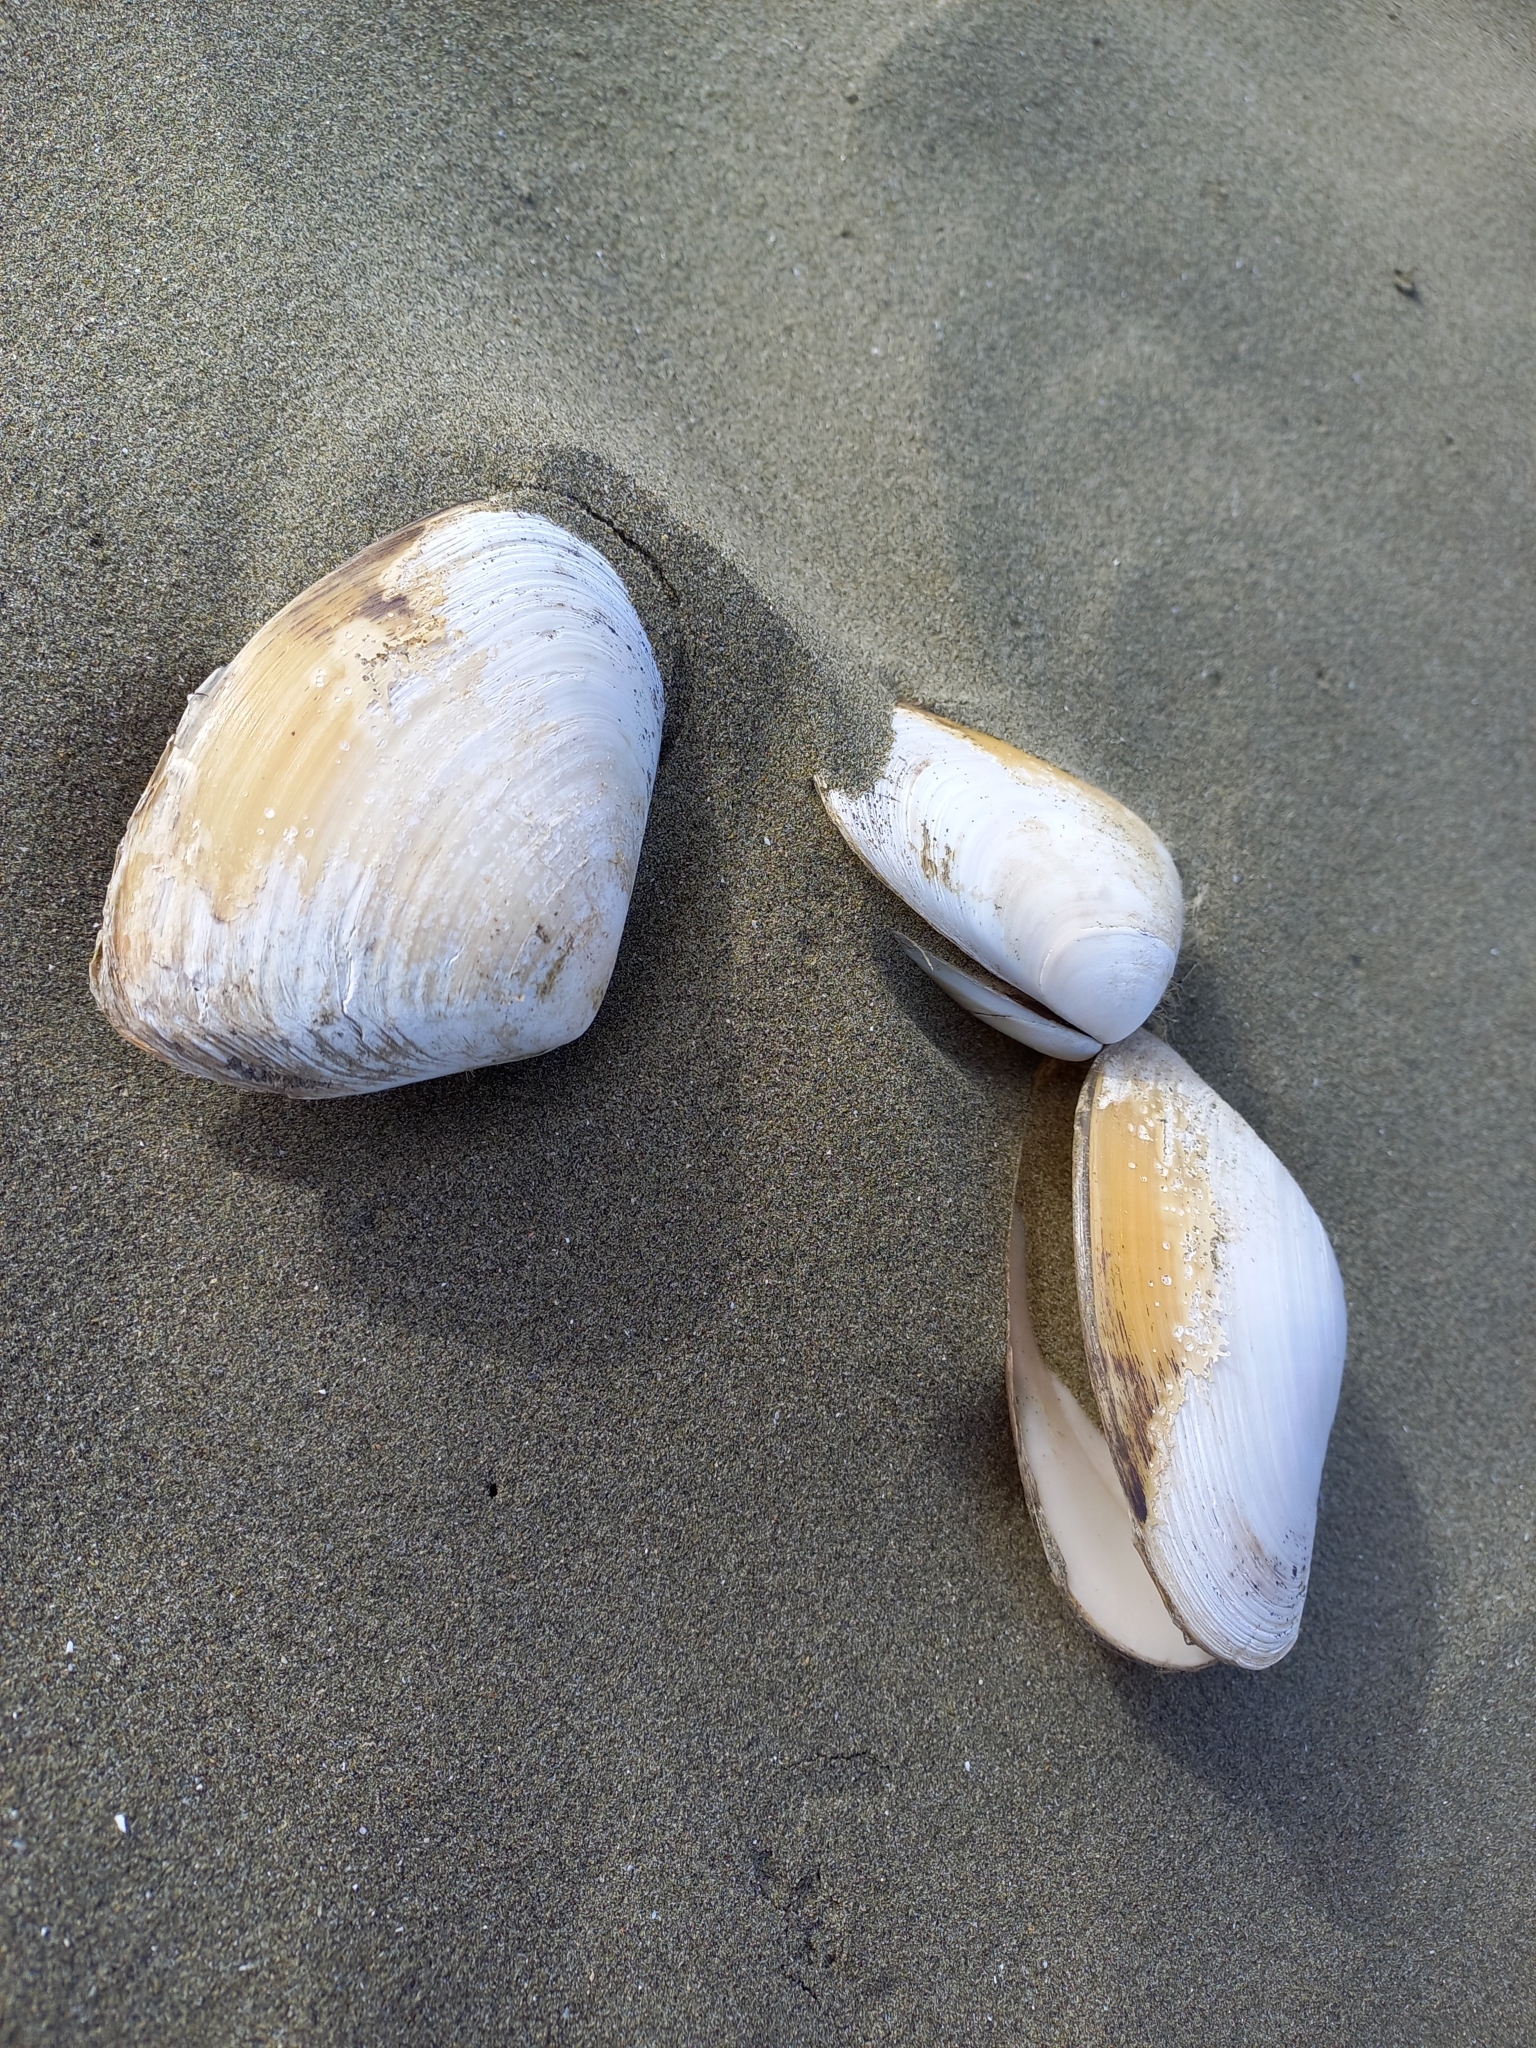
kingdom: Animalia
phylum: Mollusca
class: Bivalvia
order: Venerida
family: Mesodesmatidae
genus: Paphies
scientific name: Paphies donacina
